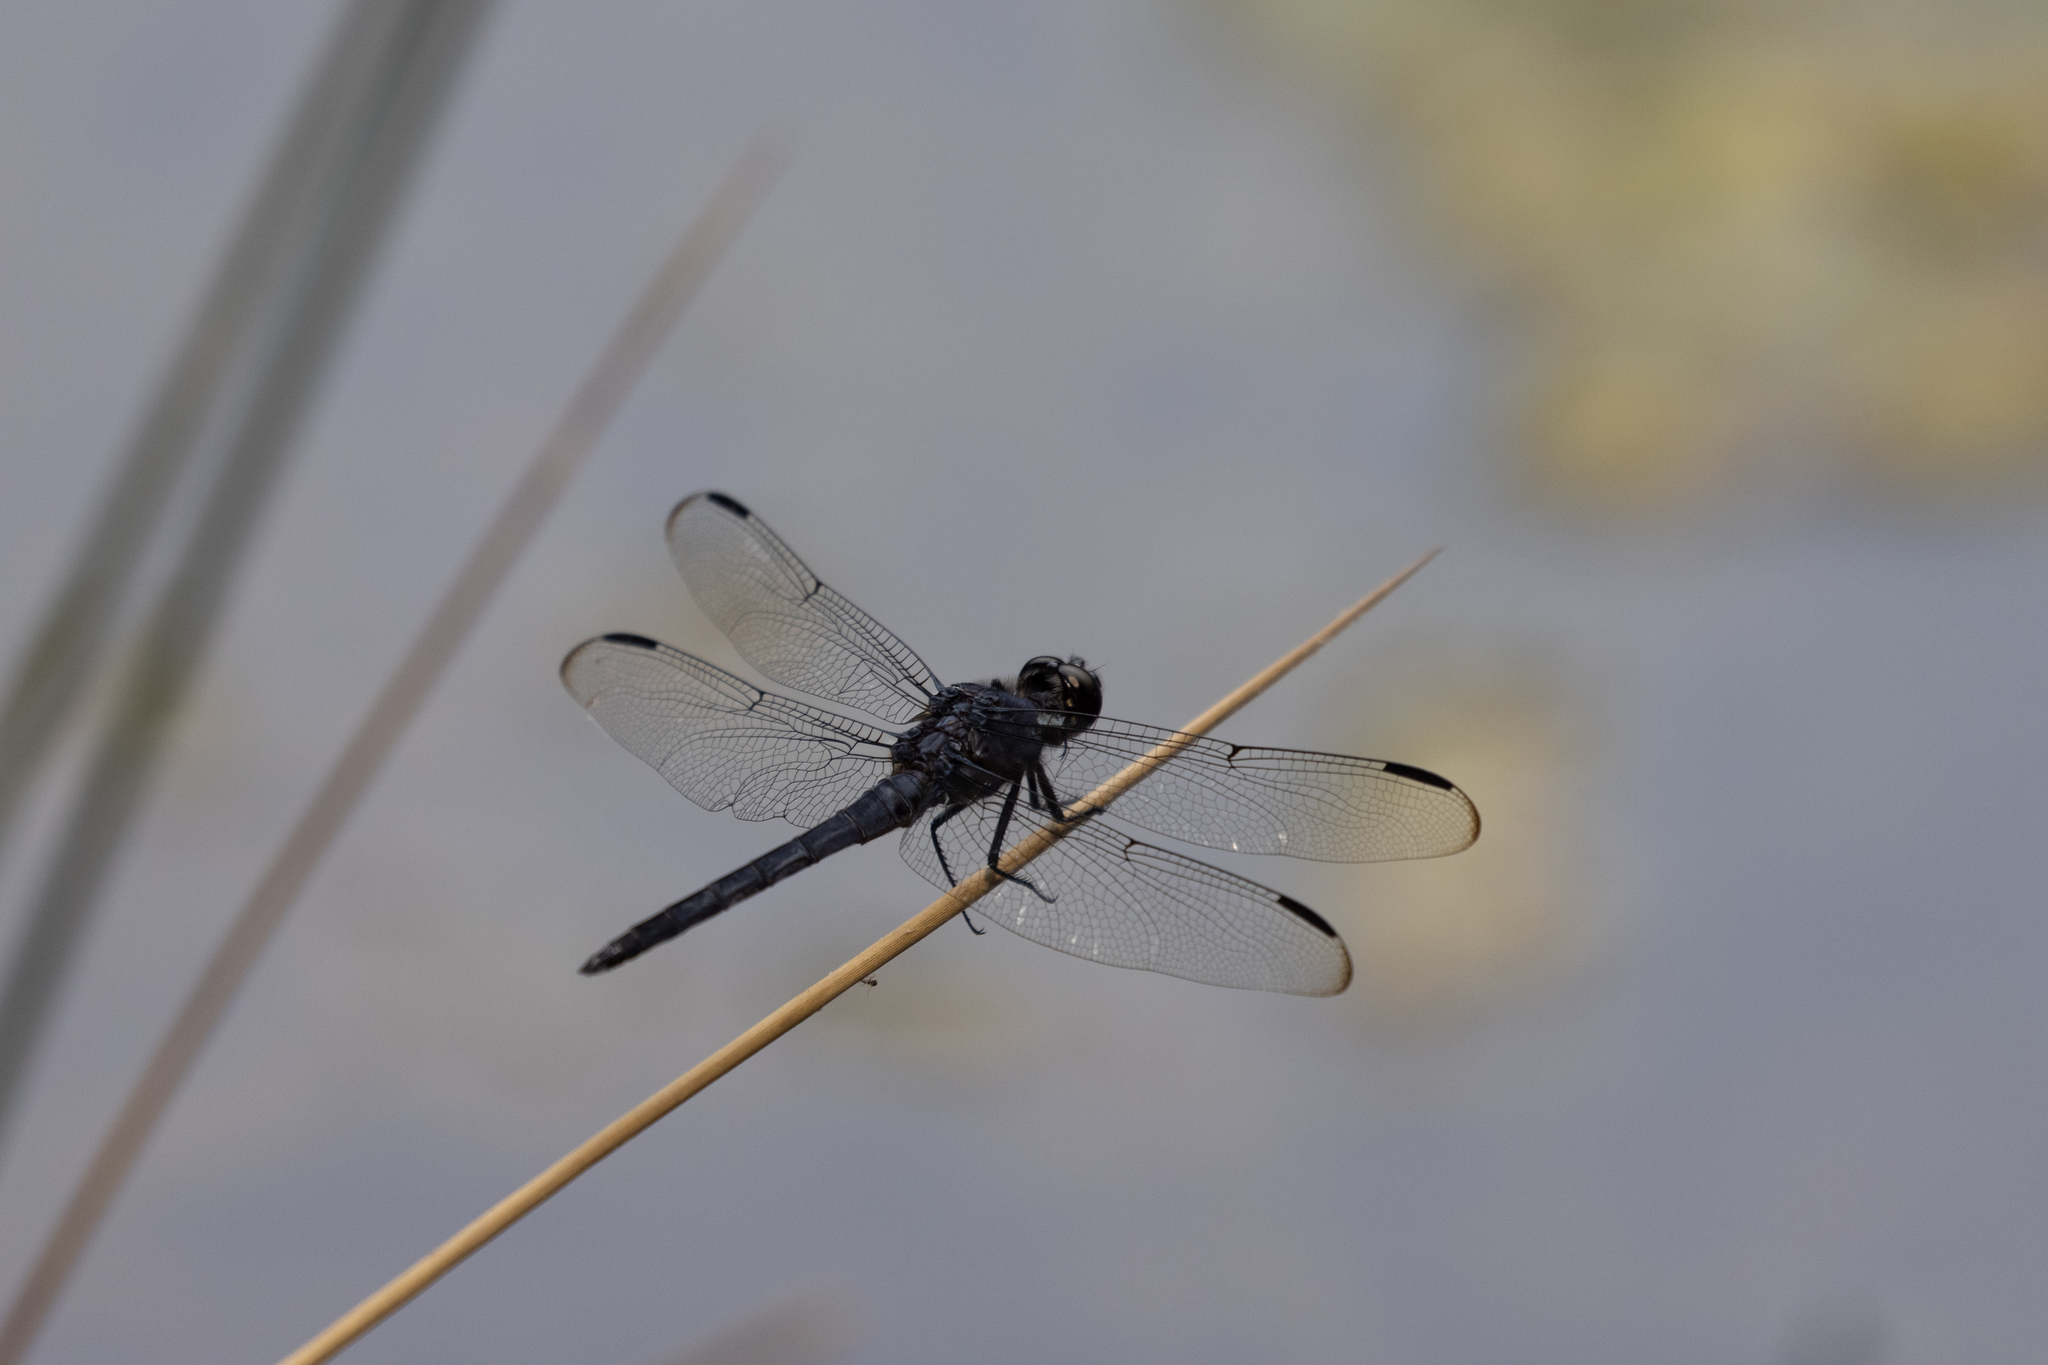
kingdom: Animalia
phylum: Arthropoda
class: Insecta
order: Odonata
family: Libellulidae
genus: Libellula
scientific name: Libellula incesta
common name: Slaty skimmer
